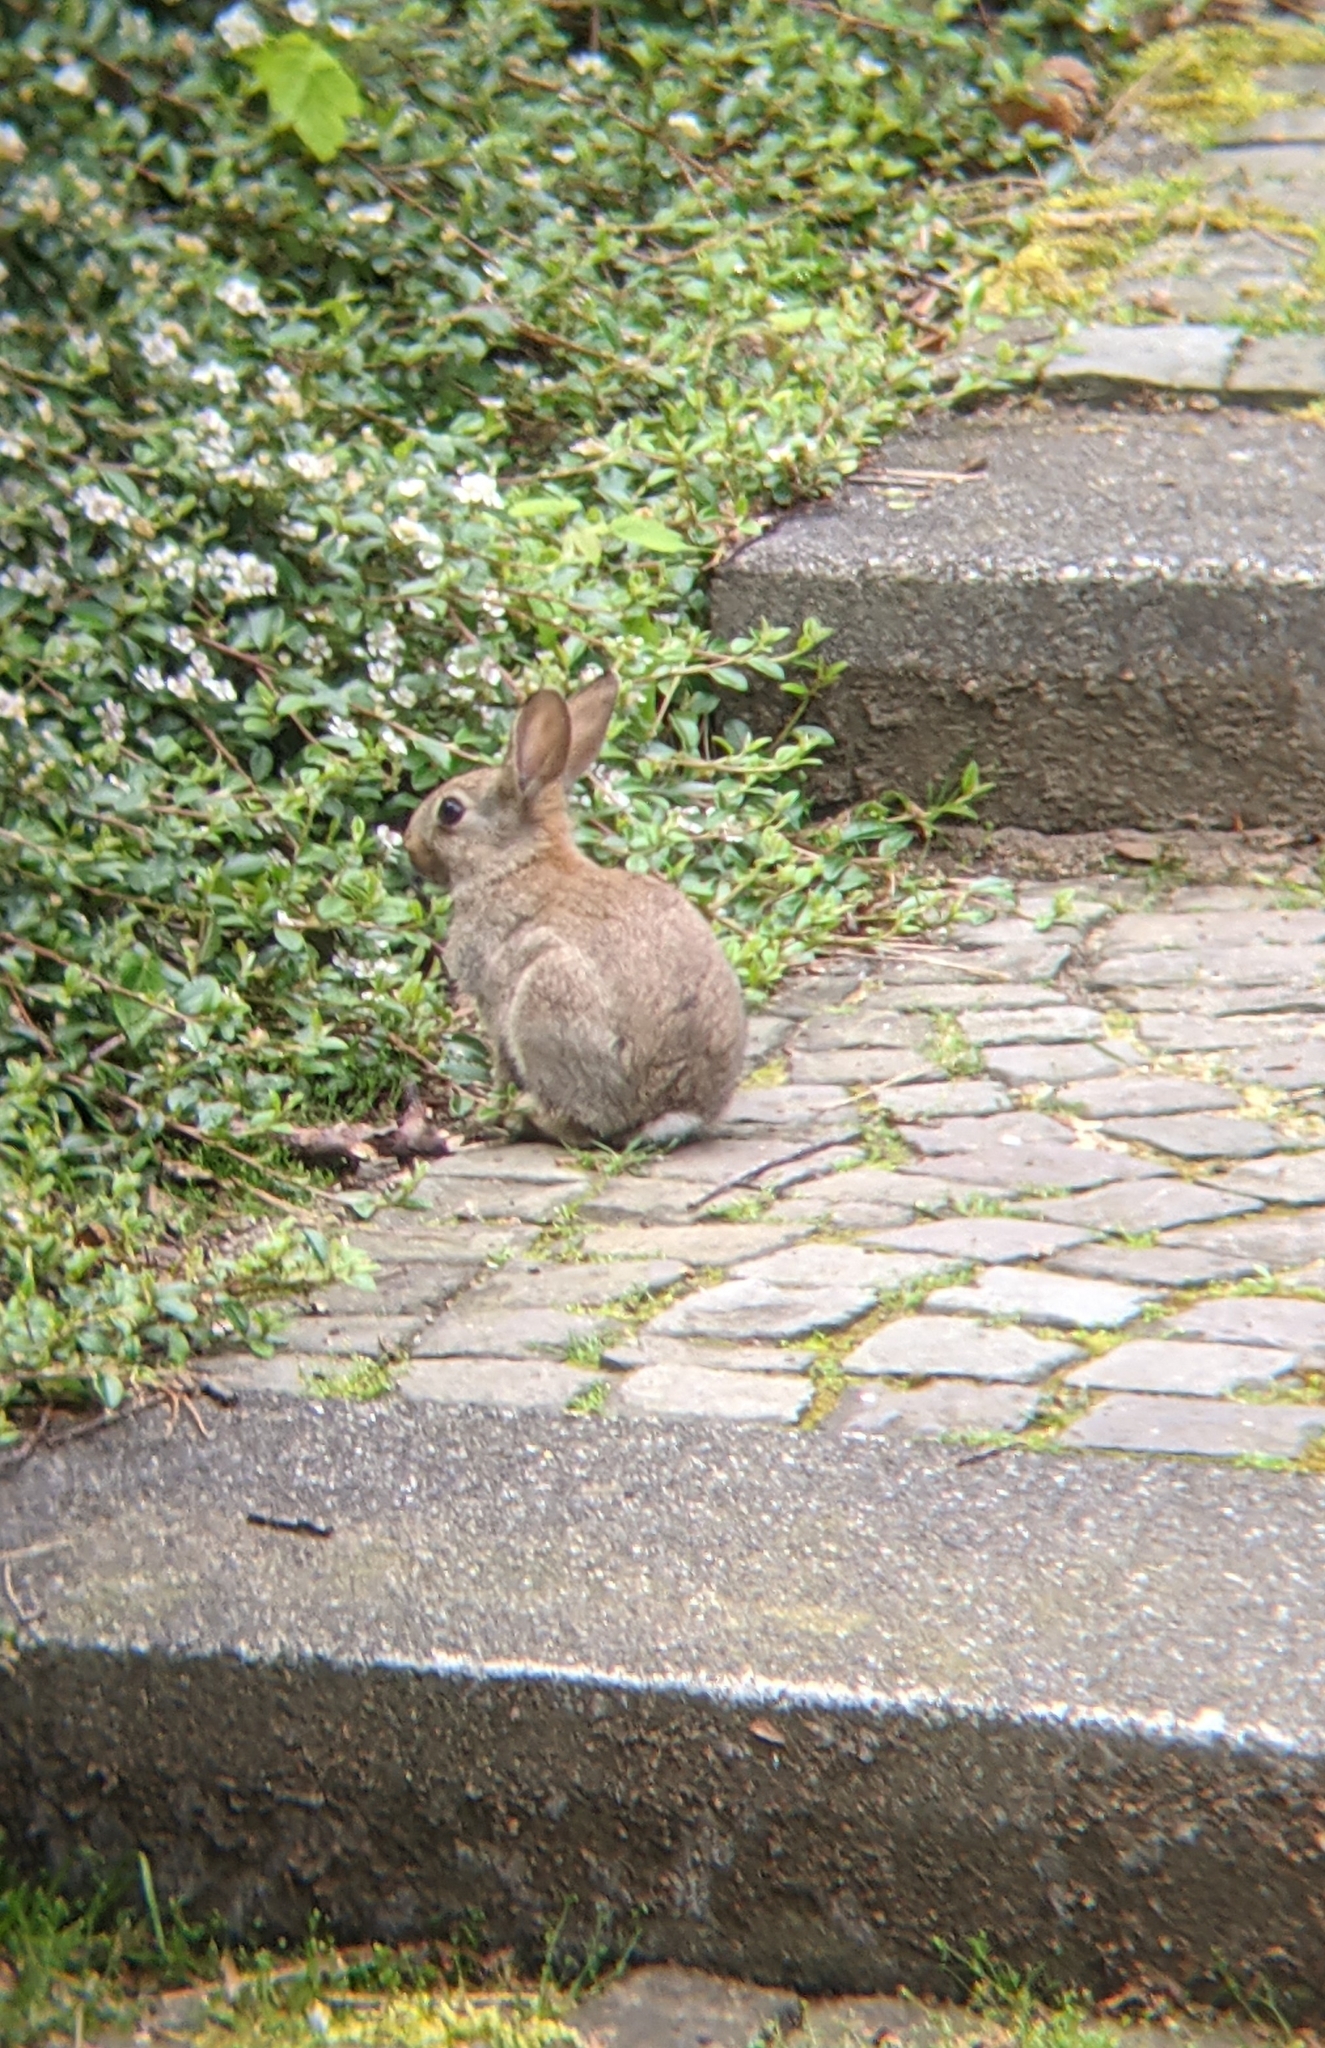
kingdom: Animalia
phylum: Chordata
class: Mammalia
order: Lagomorpha
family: Leporidae
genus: Oryctolagus
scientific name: Oryctolagus cuniculus
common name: European rabbit
